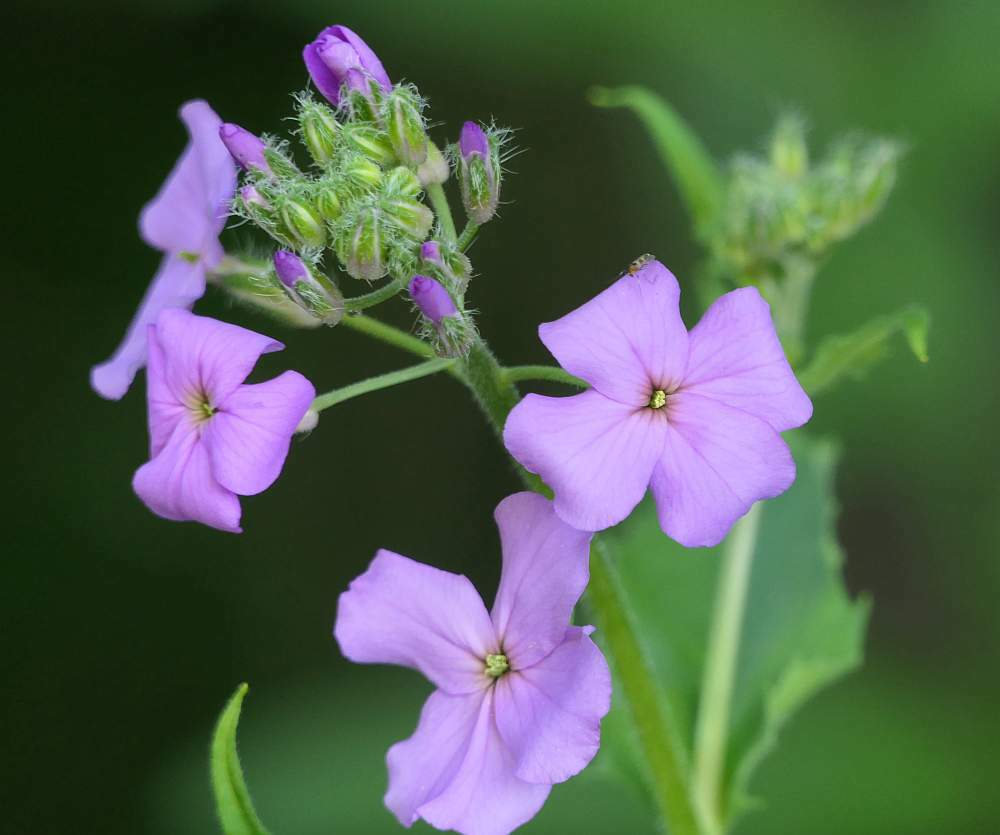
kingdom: Plantae
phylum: Tracheophyta
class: Magnoliopsida
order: Brassicales
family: Brassicaceae
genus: Hesperis
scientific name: Hesperis matronalis
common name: Dame's-violet
